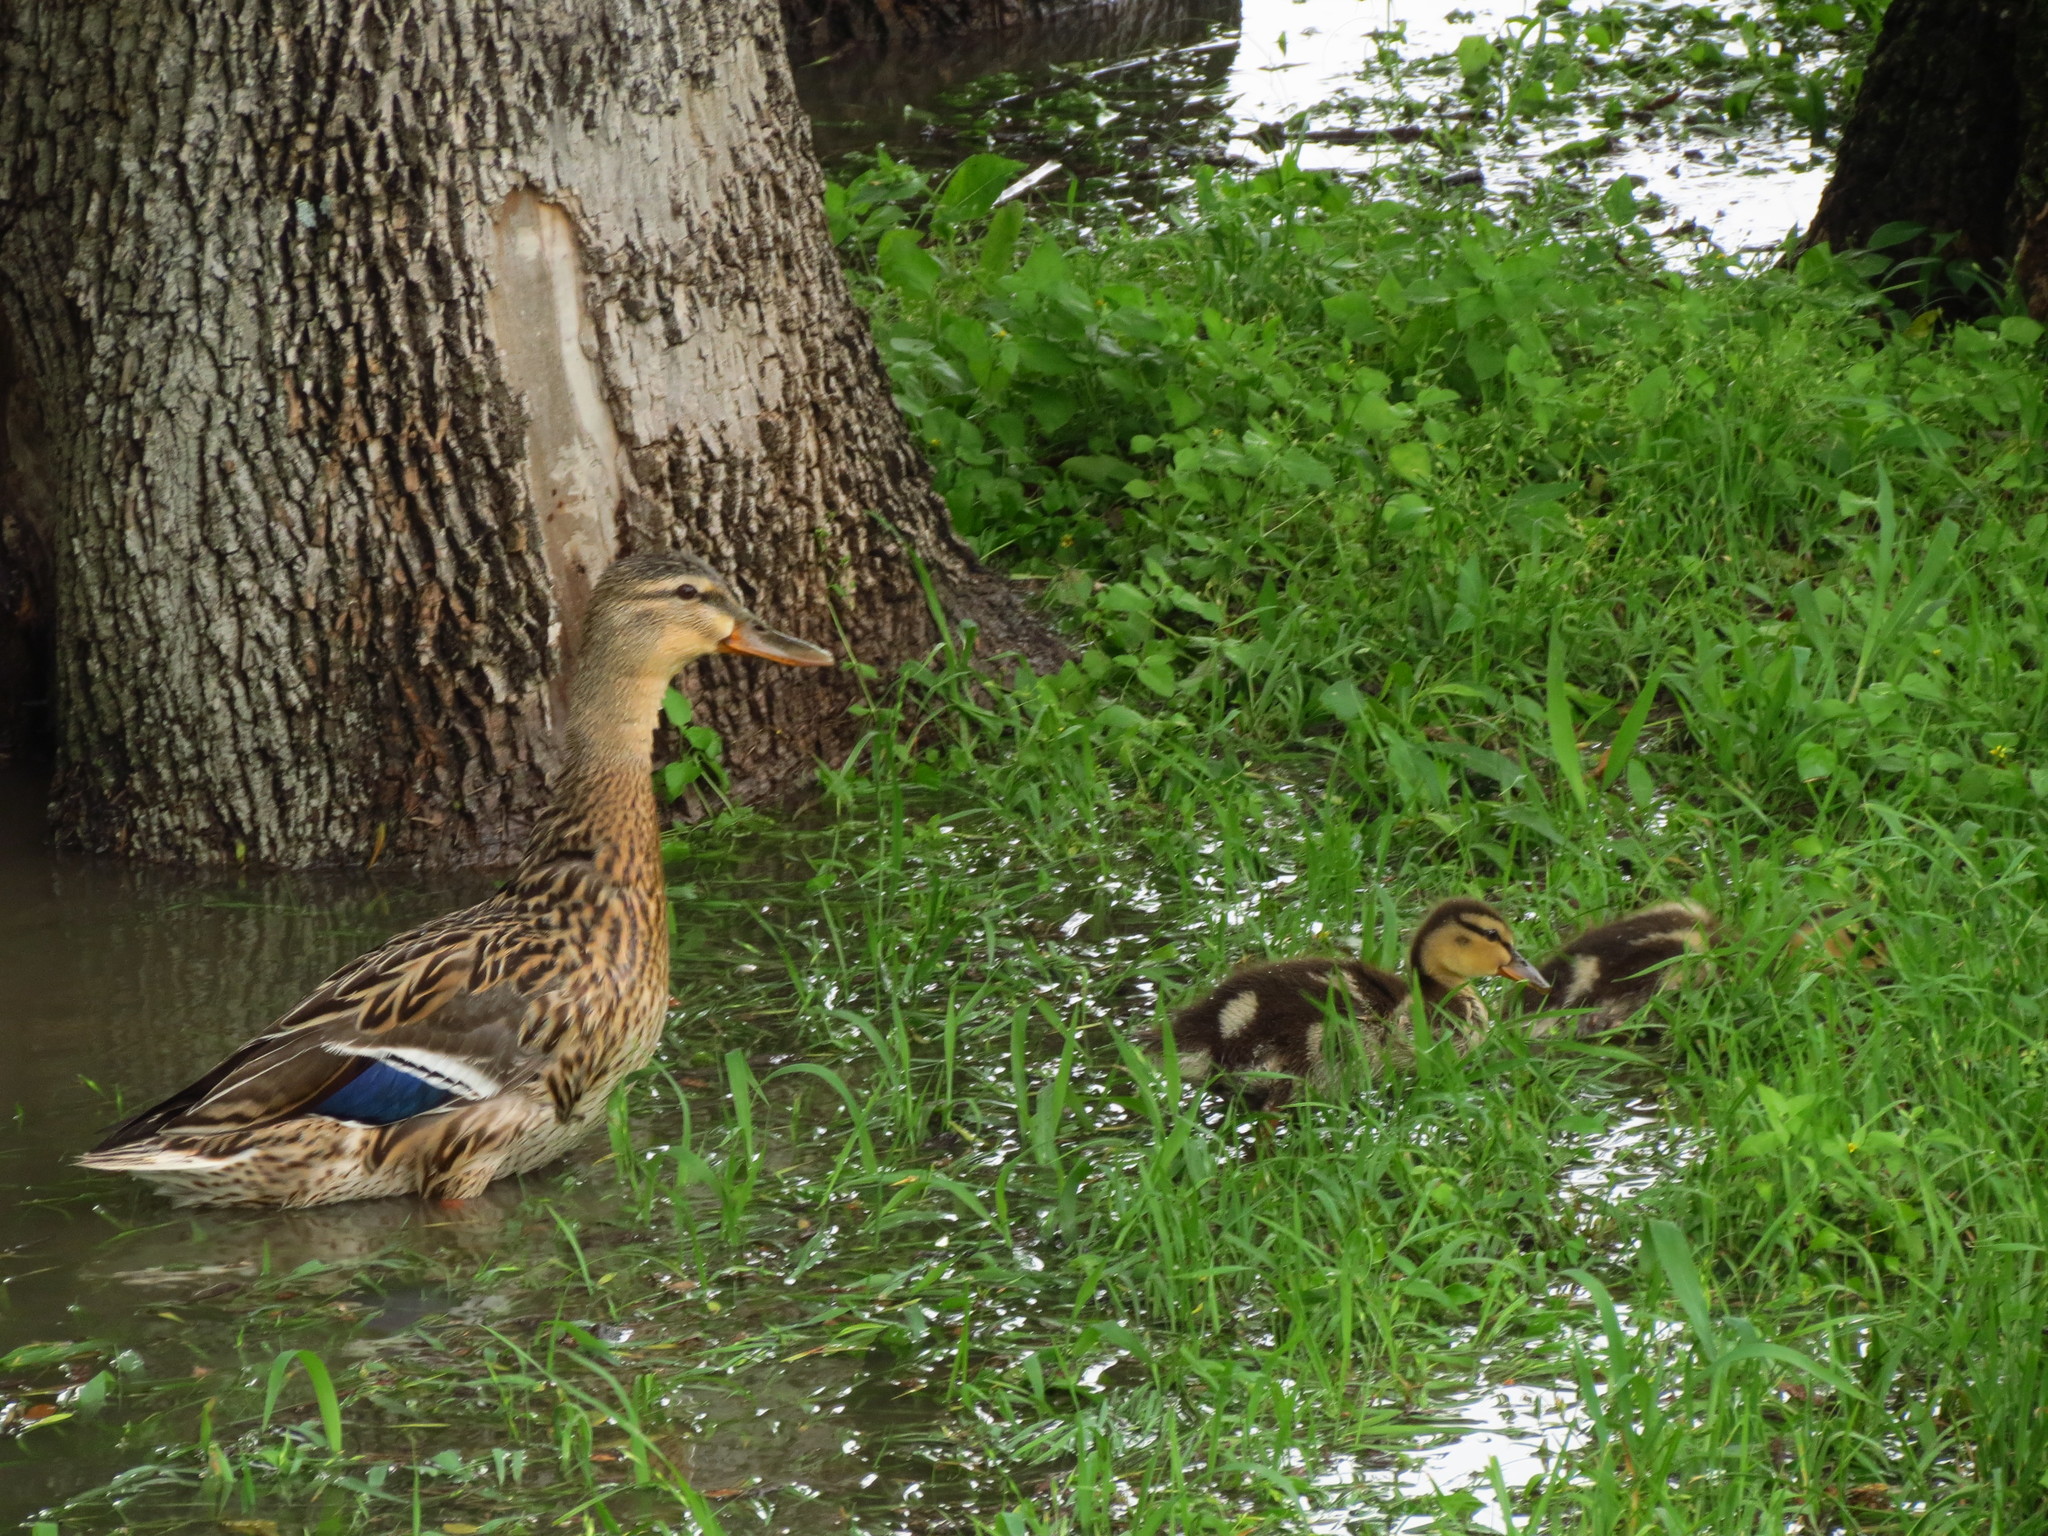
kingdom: Animalia
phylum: Chordata
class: Aves
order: Anseriformes
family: Anatidae
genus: Anas
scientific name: Anas platyrhynchos
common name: Mallard
